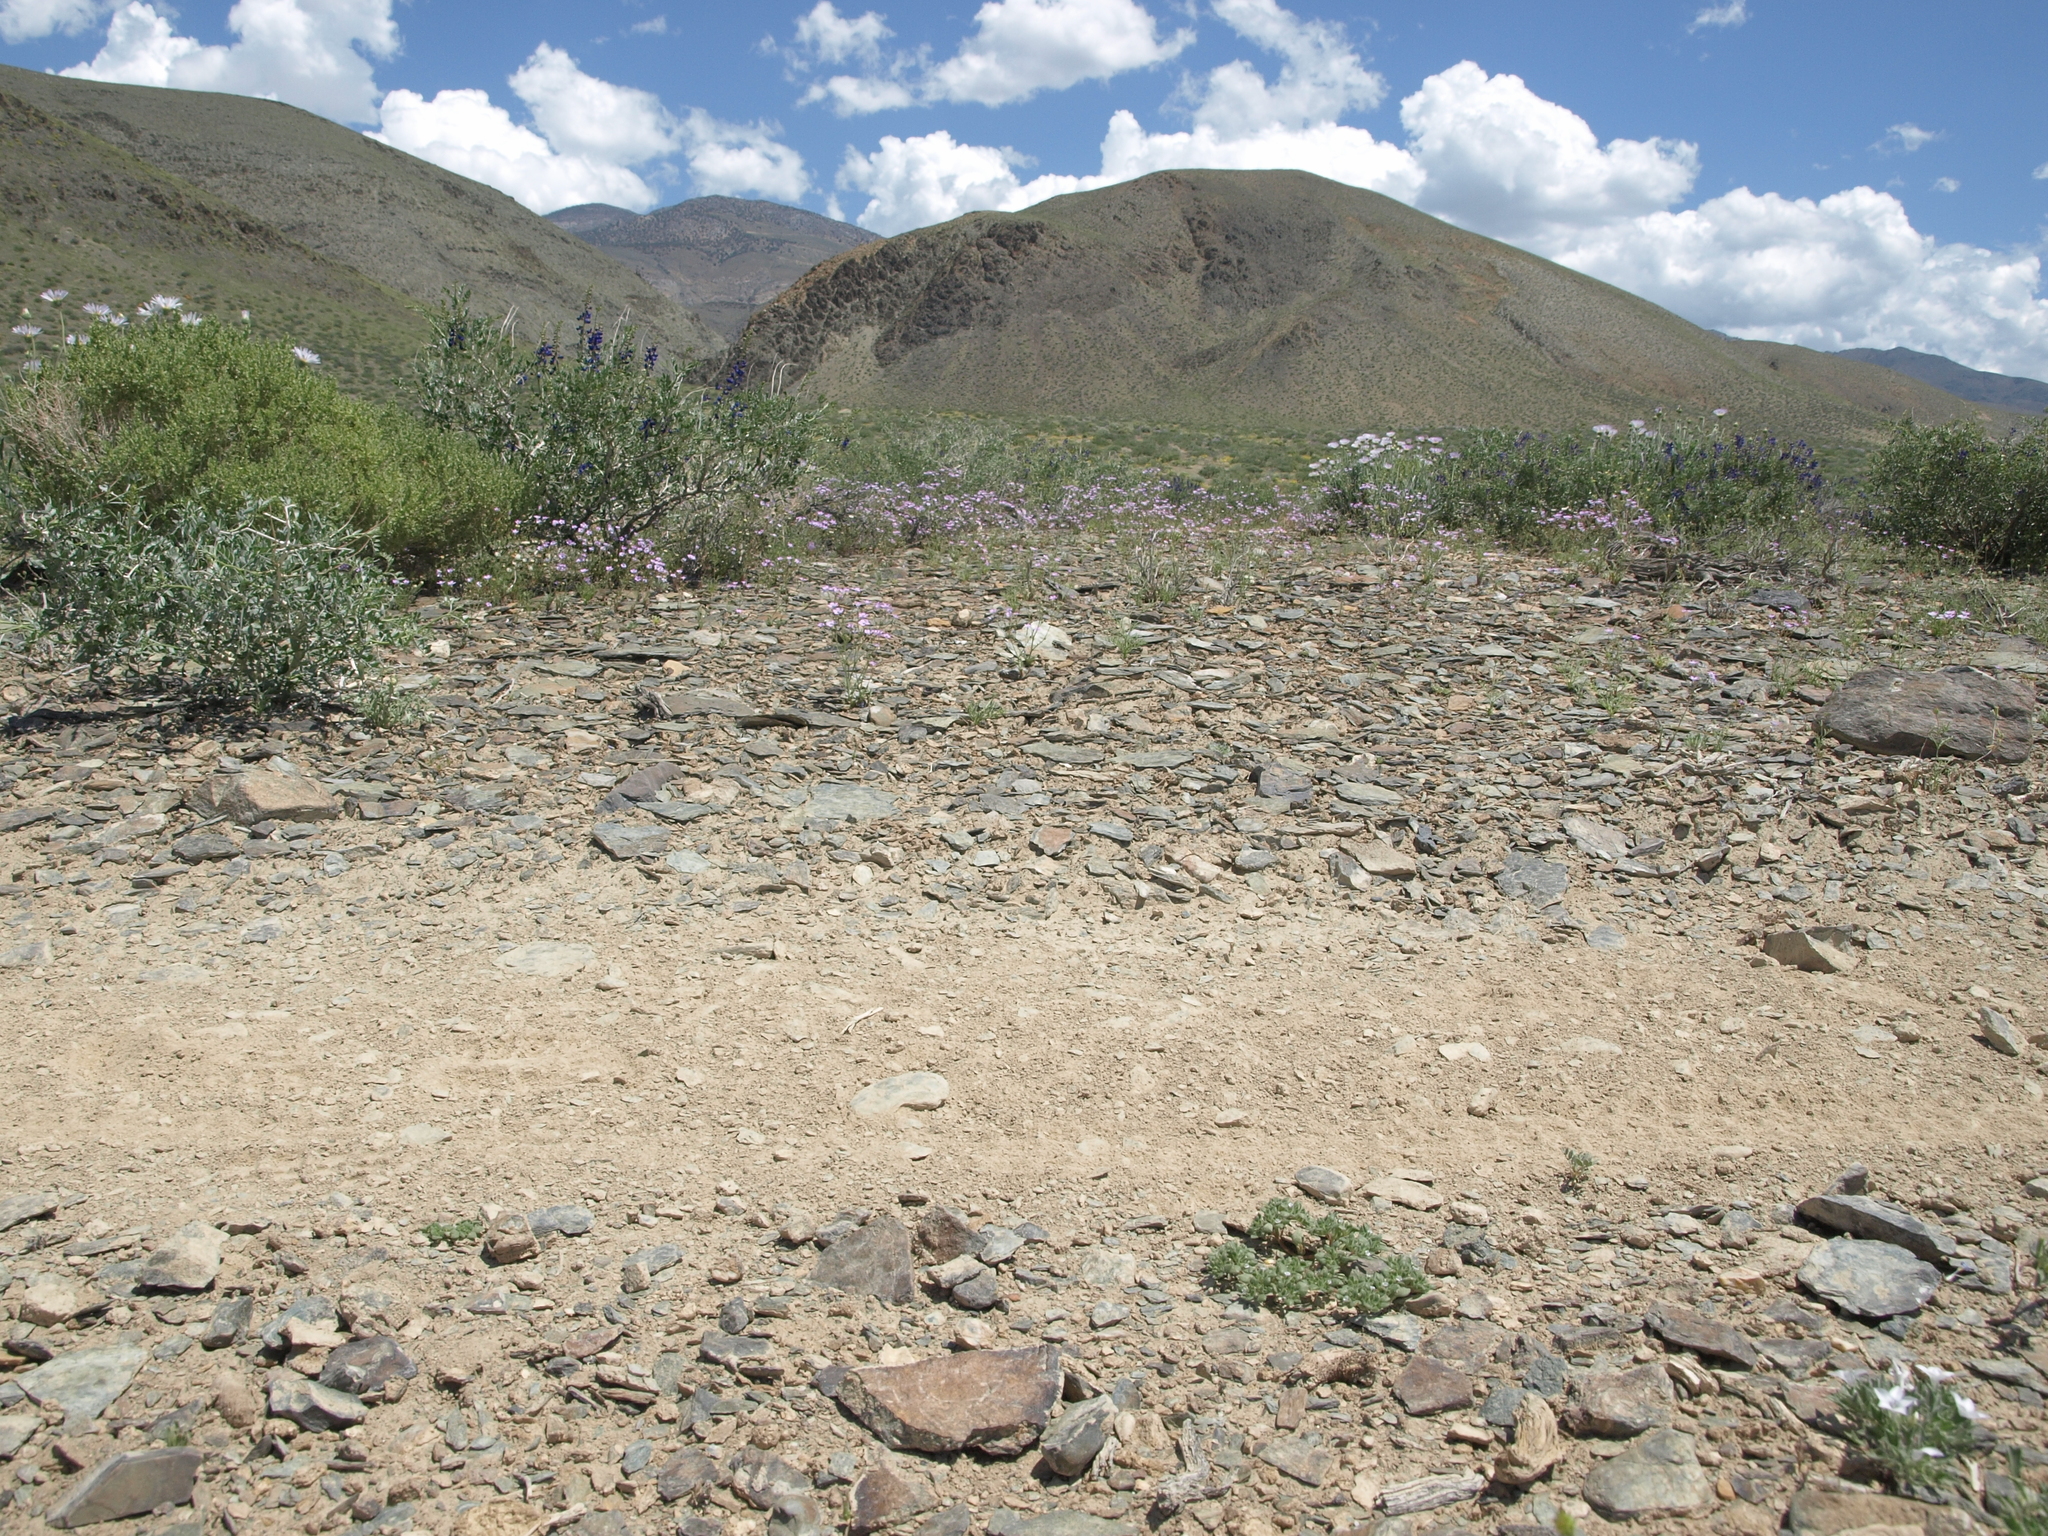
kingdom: Plantae
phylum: Tracheophyta
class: Magnoliopsida
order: Boraginales
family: Namaceae
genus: Nama
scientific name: Nama pusilla
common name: Eggleaf nama
